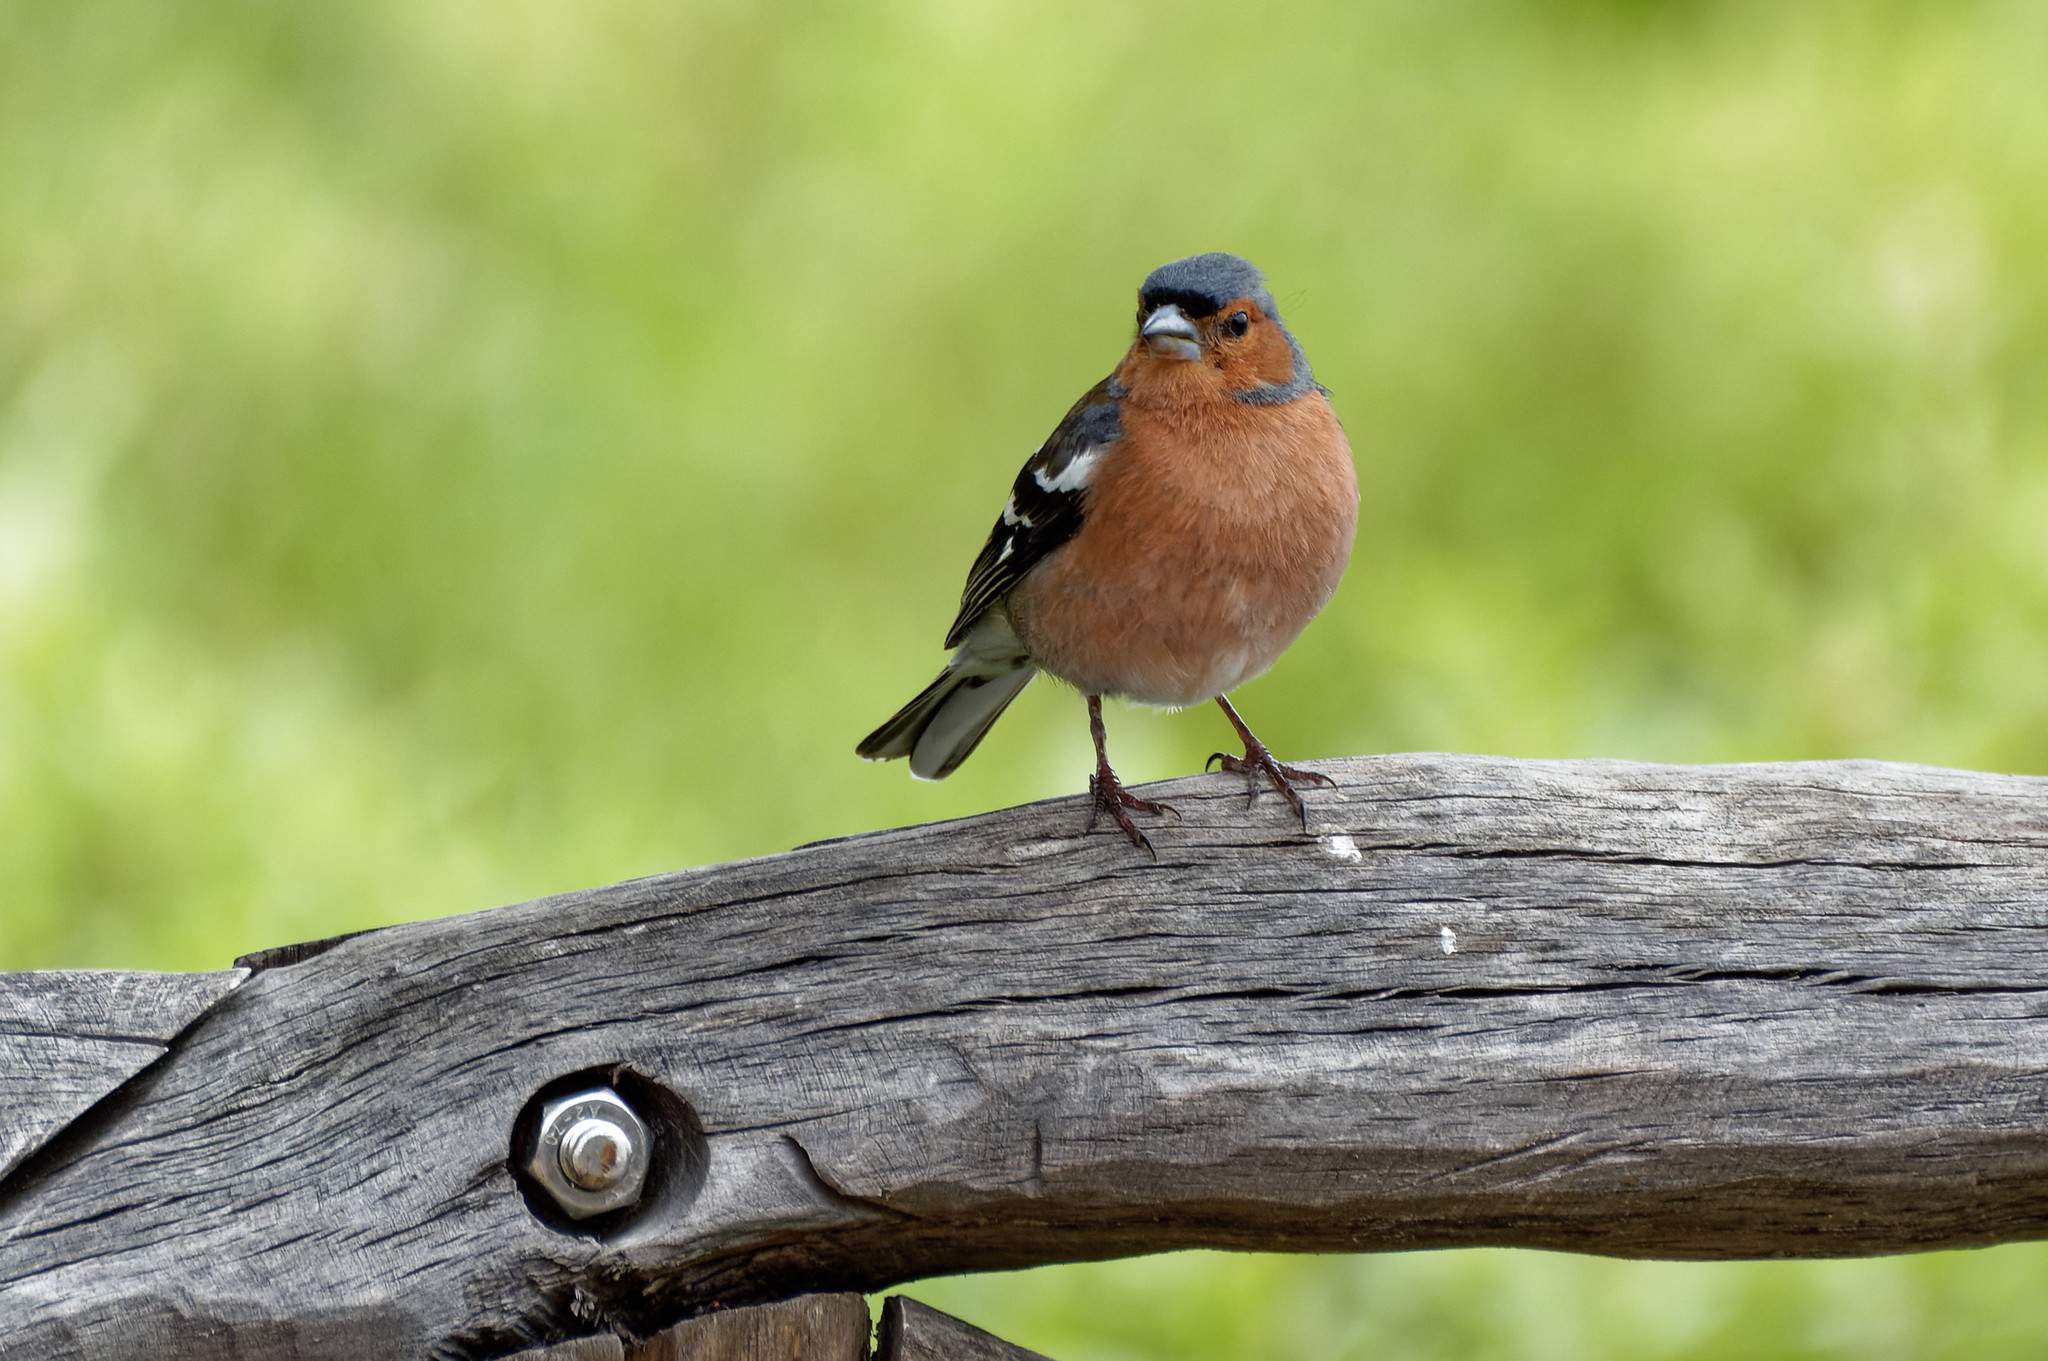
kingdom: Animalia
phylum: Chordata
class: Aves
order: Passeriformes
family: Fringillidae
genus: Fringilla
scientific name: Fringilla coelebs
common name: Common chaffinch
